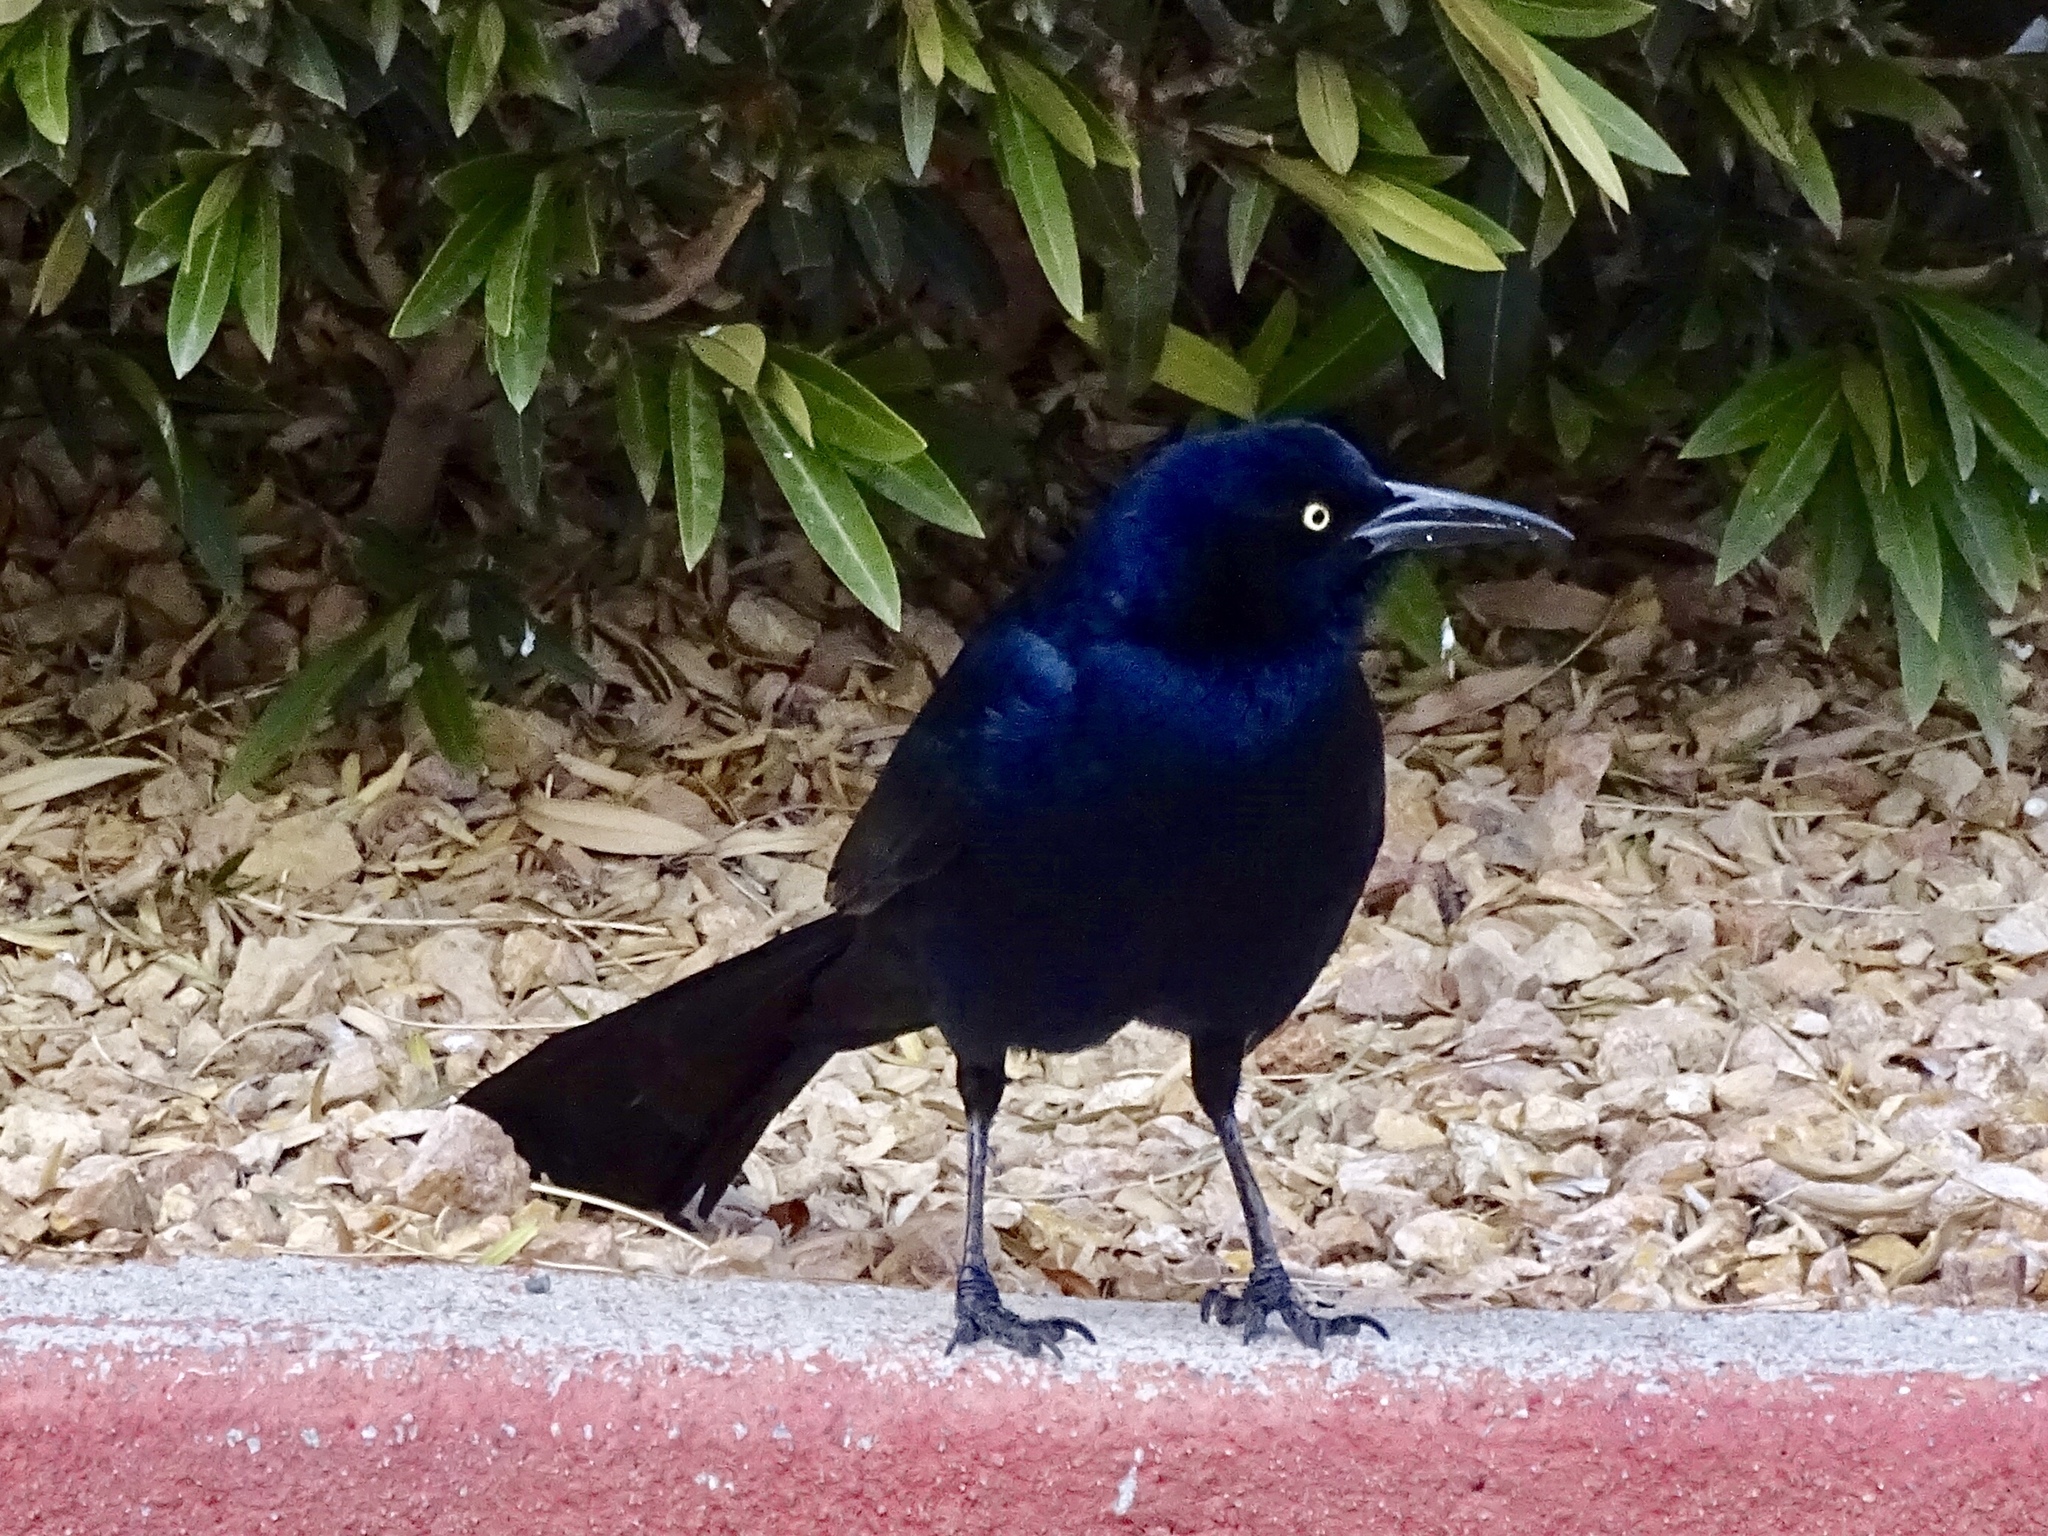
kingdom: Animalia
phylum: Chordata
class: Aves
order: Passeriformes
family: Icteridae
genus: Quiscalus
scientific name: Quiscalus mexicanus
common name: Great-tailed grackle
